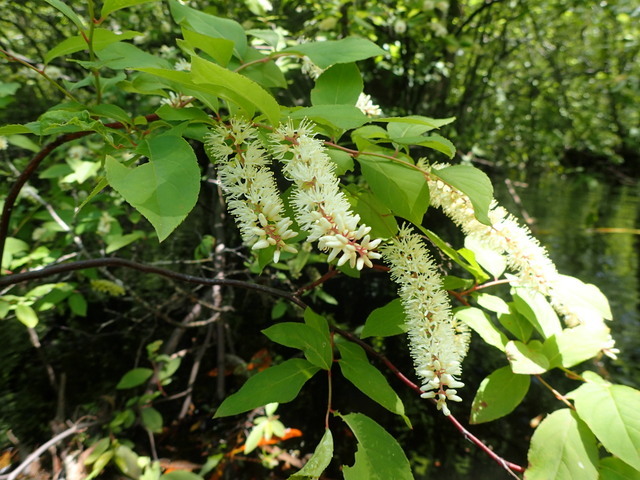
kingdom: Plantae
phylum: Tracheophyta
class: Magnoliopsida
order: Saxifragales
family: Iteaceae
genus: Itea
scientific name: Itea virginica
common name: Sweetspire
